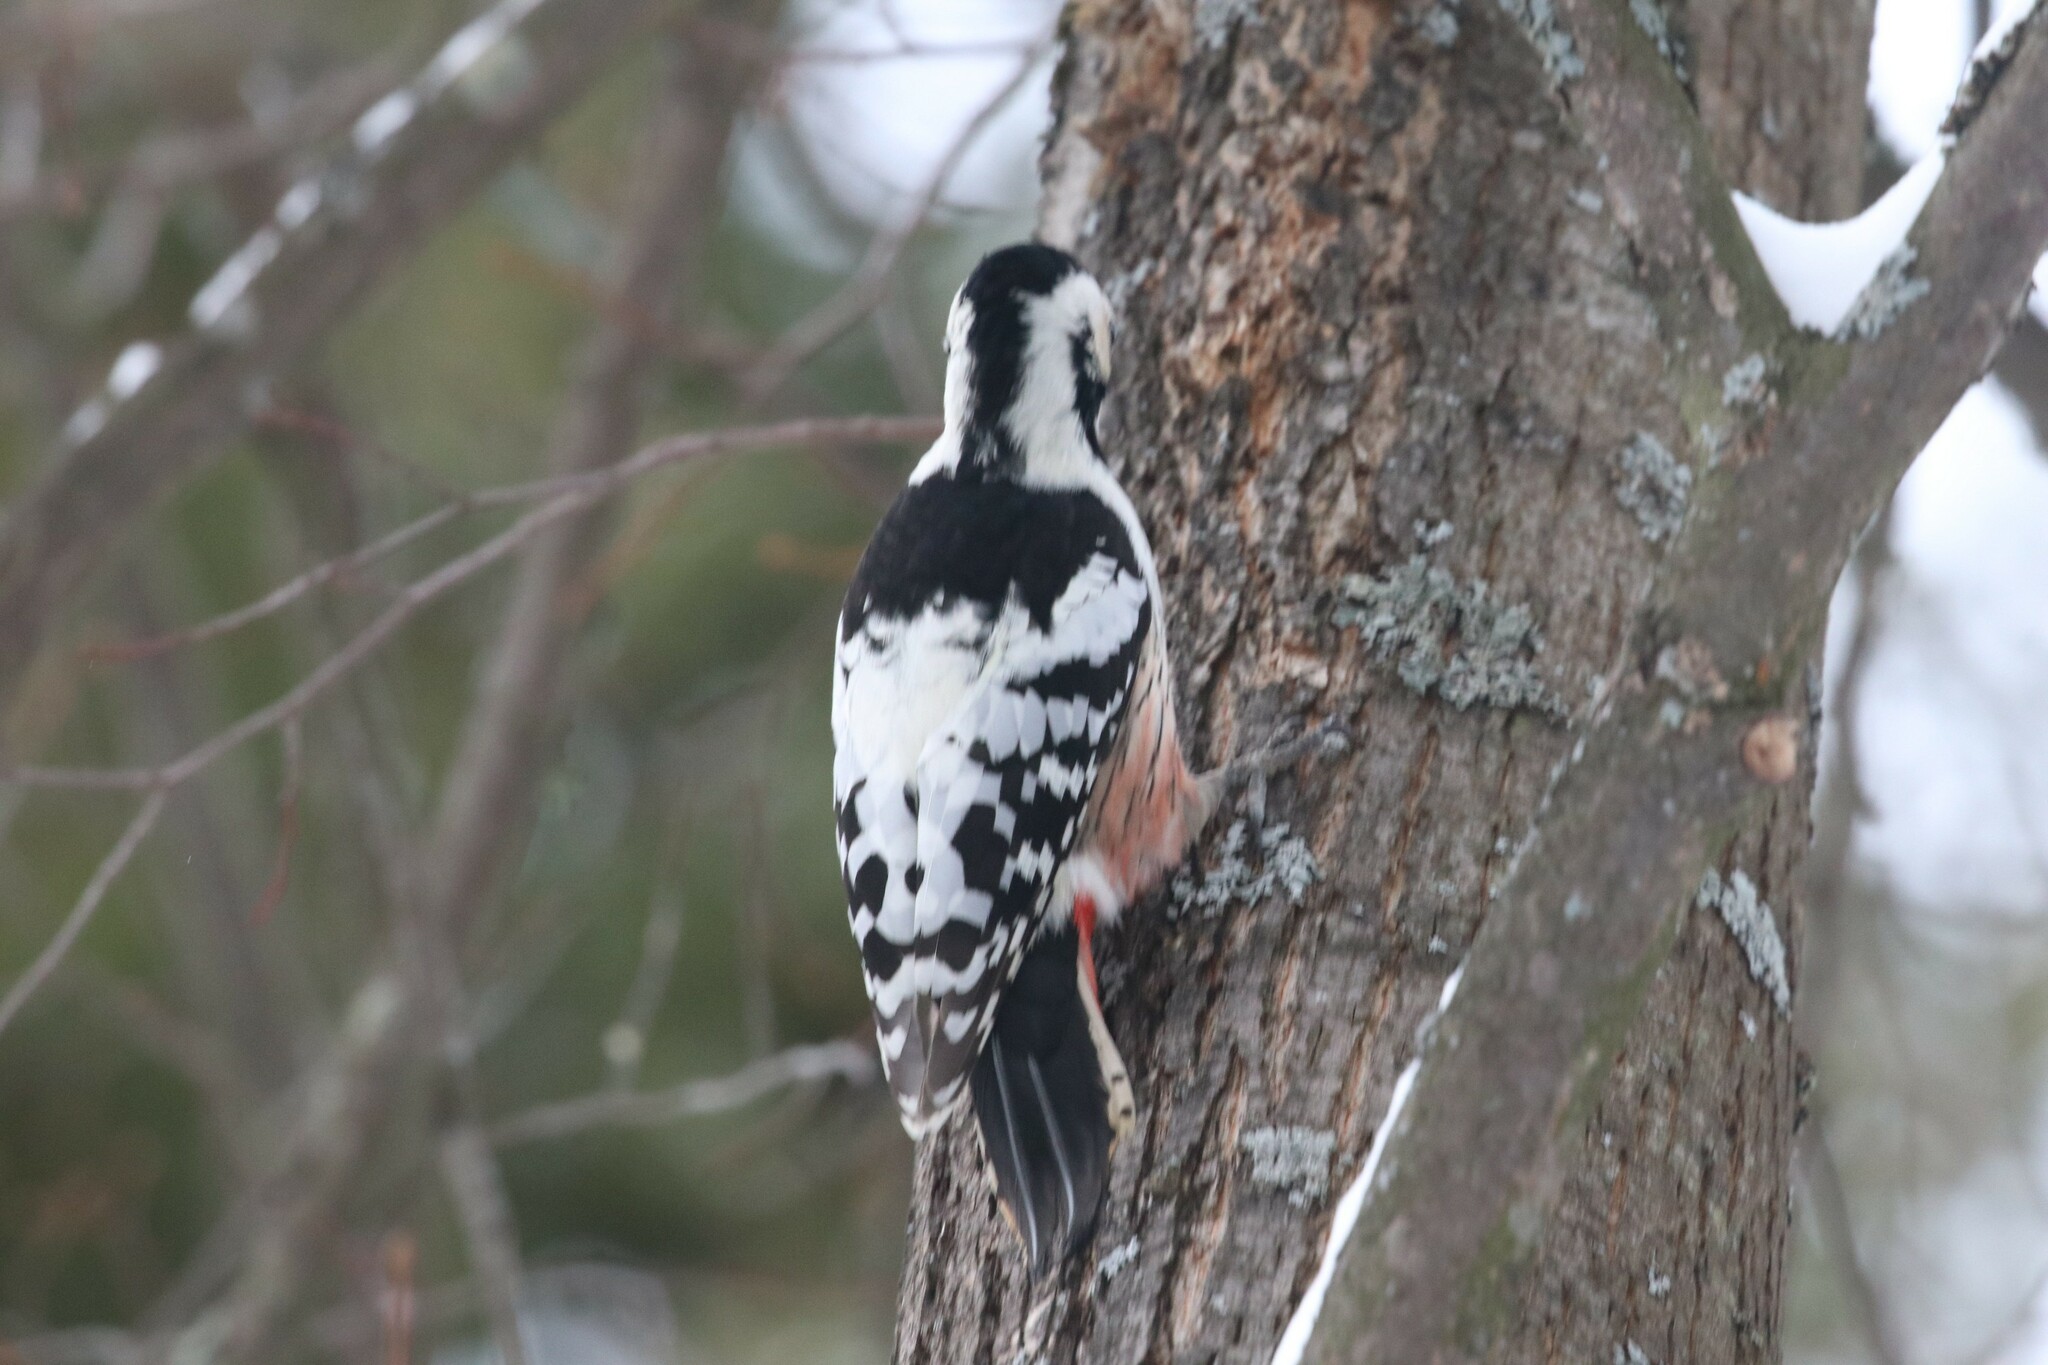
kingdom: Animalia
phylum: Chordata
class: Aves
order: Piciformes
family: Picidae
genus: Dendrocopos
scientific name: Dendrocopos leucotos
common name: White-backed woodpecker
